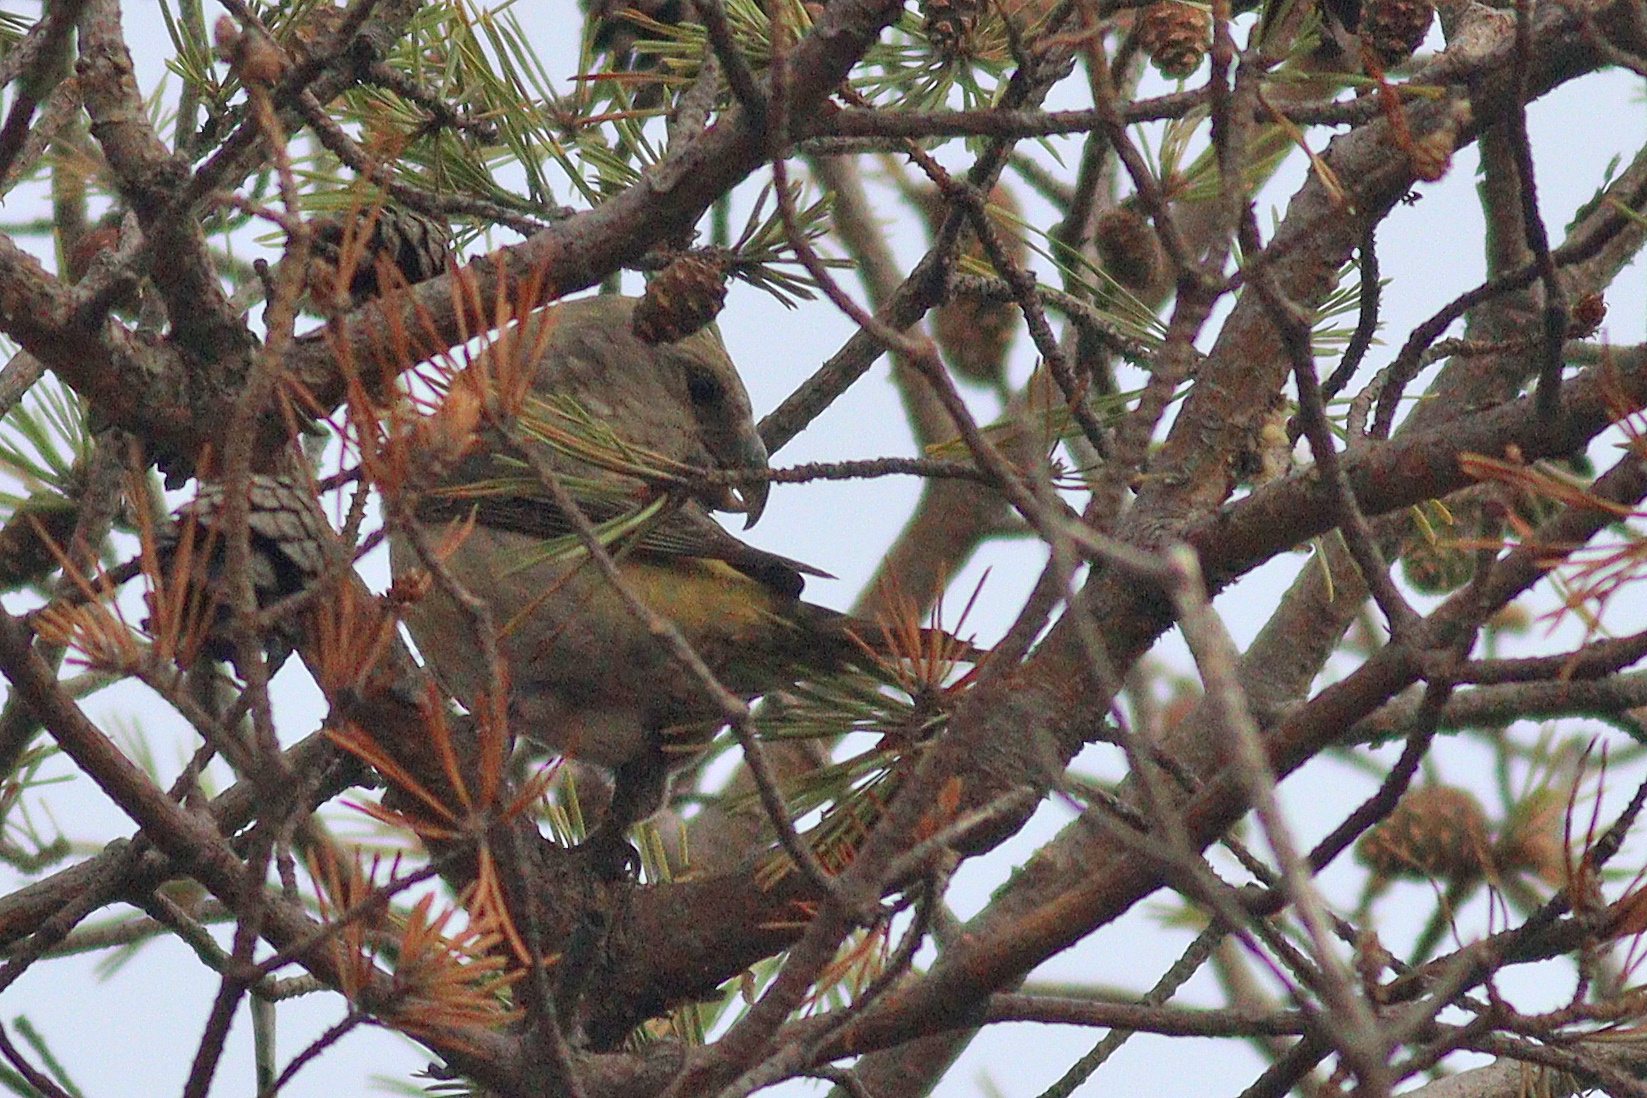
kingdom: Animalia
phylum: Chordata
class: Aves
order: Passeriformes
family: Fringillidae
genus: Loxia
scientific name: Loxia pytyopsittacus
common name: Parrot crossbill
